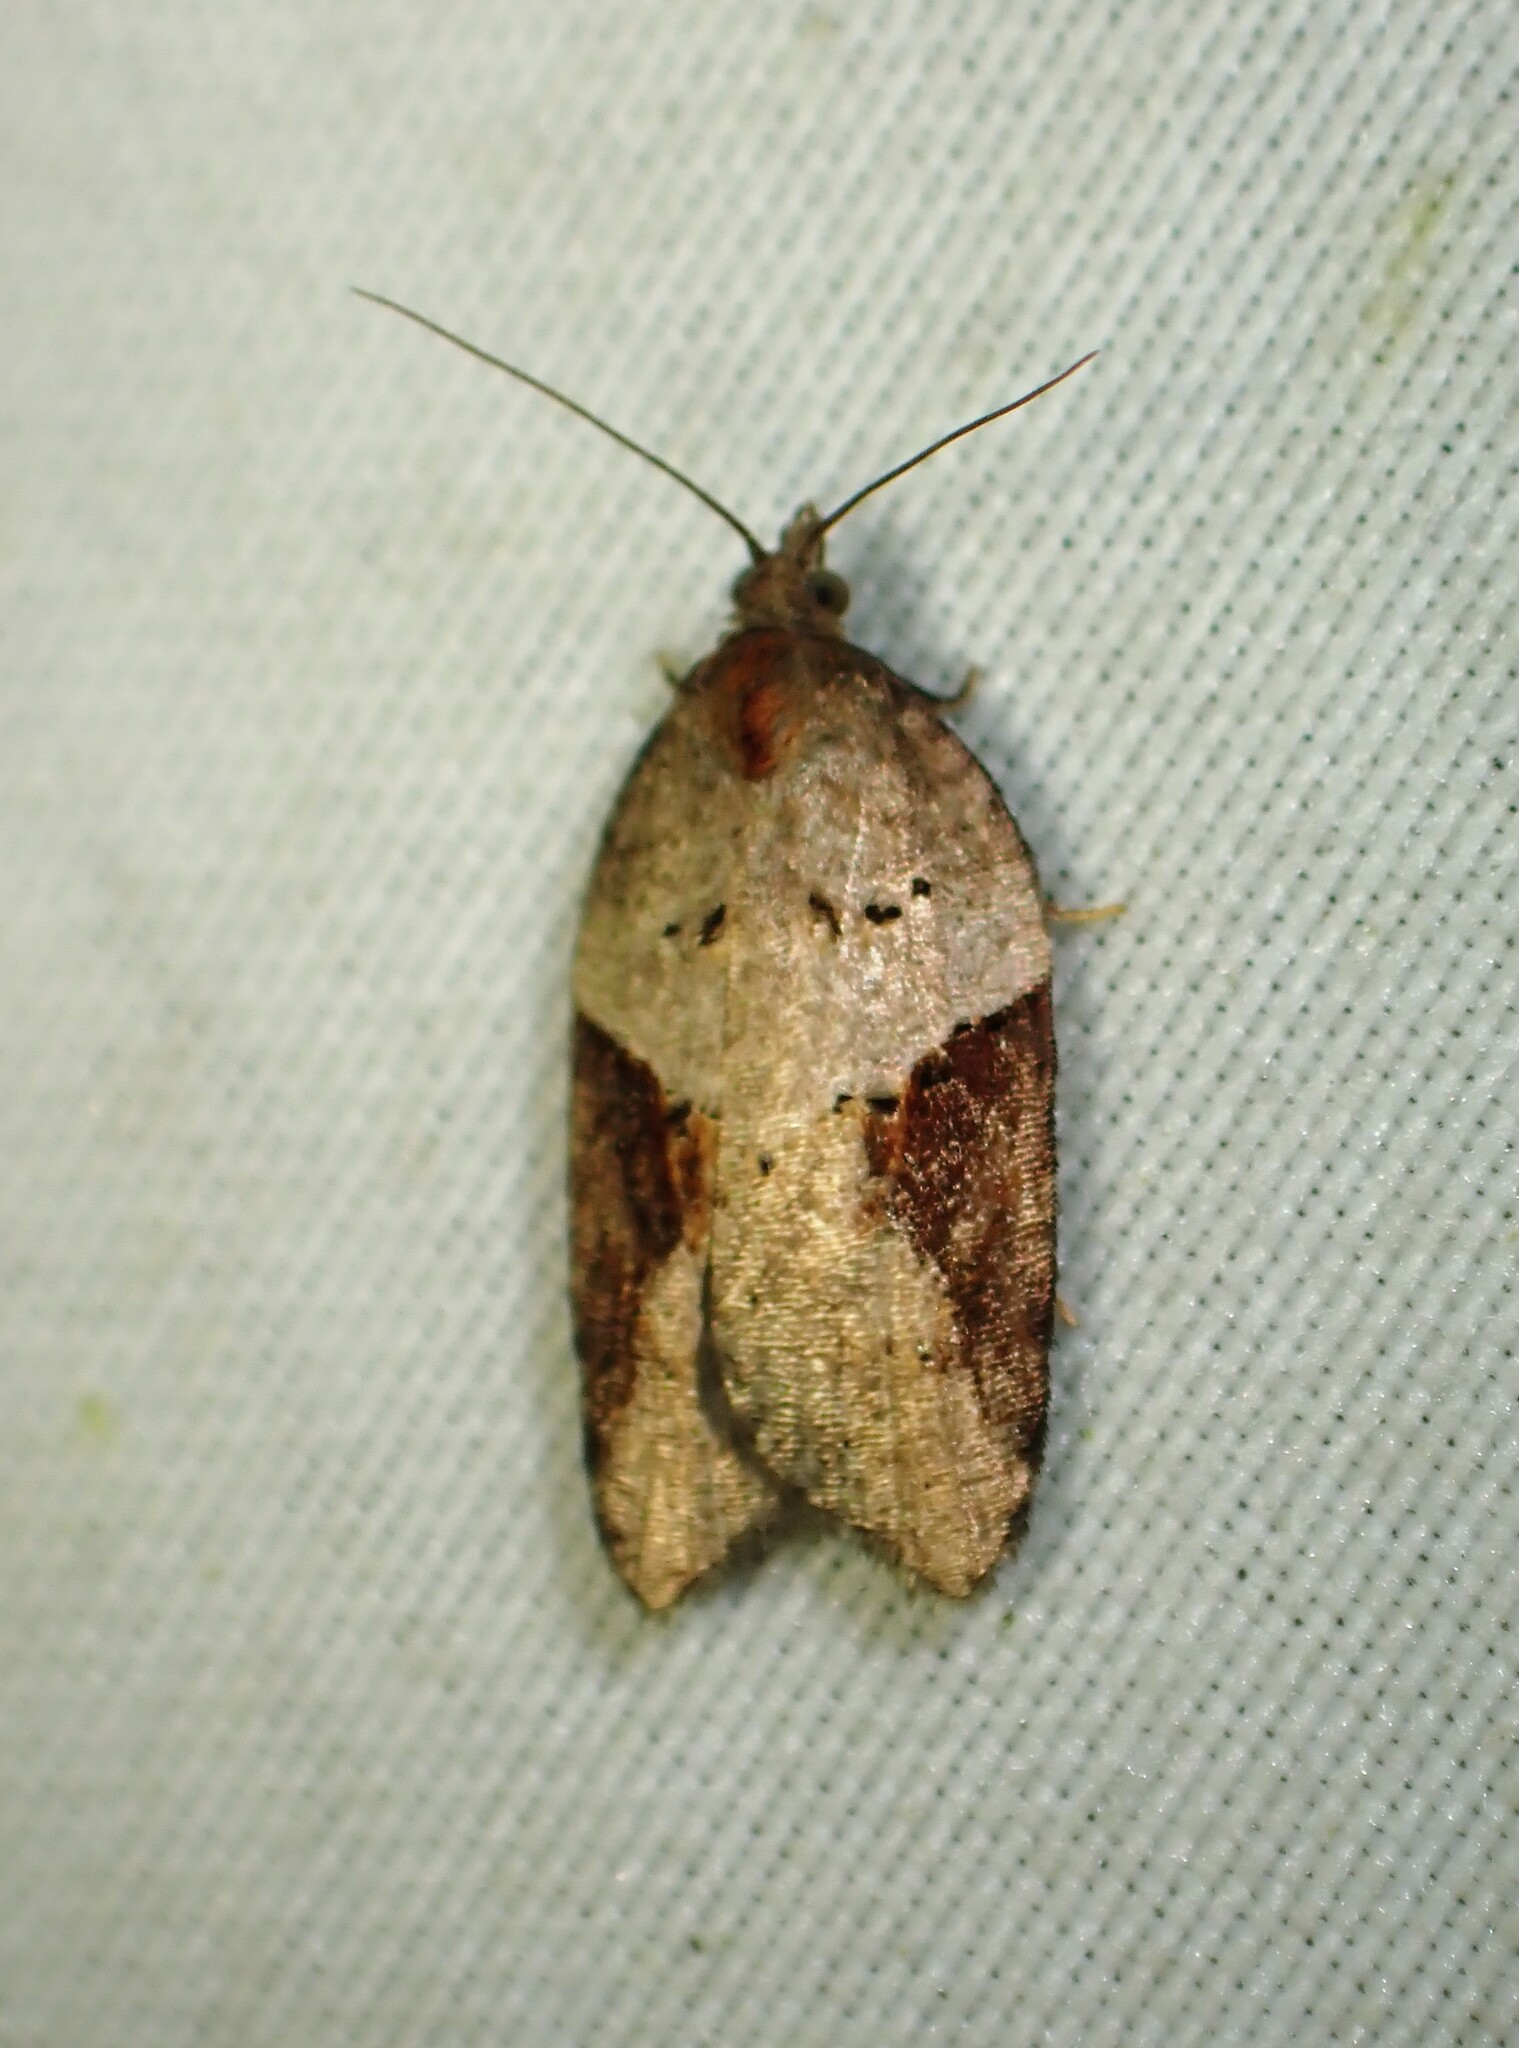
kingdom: Animalia
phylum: Arthropoda
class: Insecta
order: Lepidoptera
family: Tortricidae
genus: Acleris
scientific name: Acleris macdunnoughi
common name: Macdunnough's acleris
